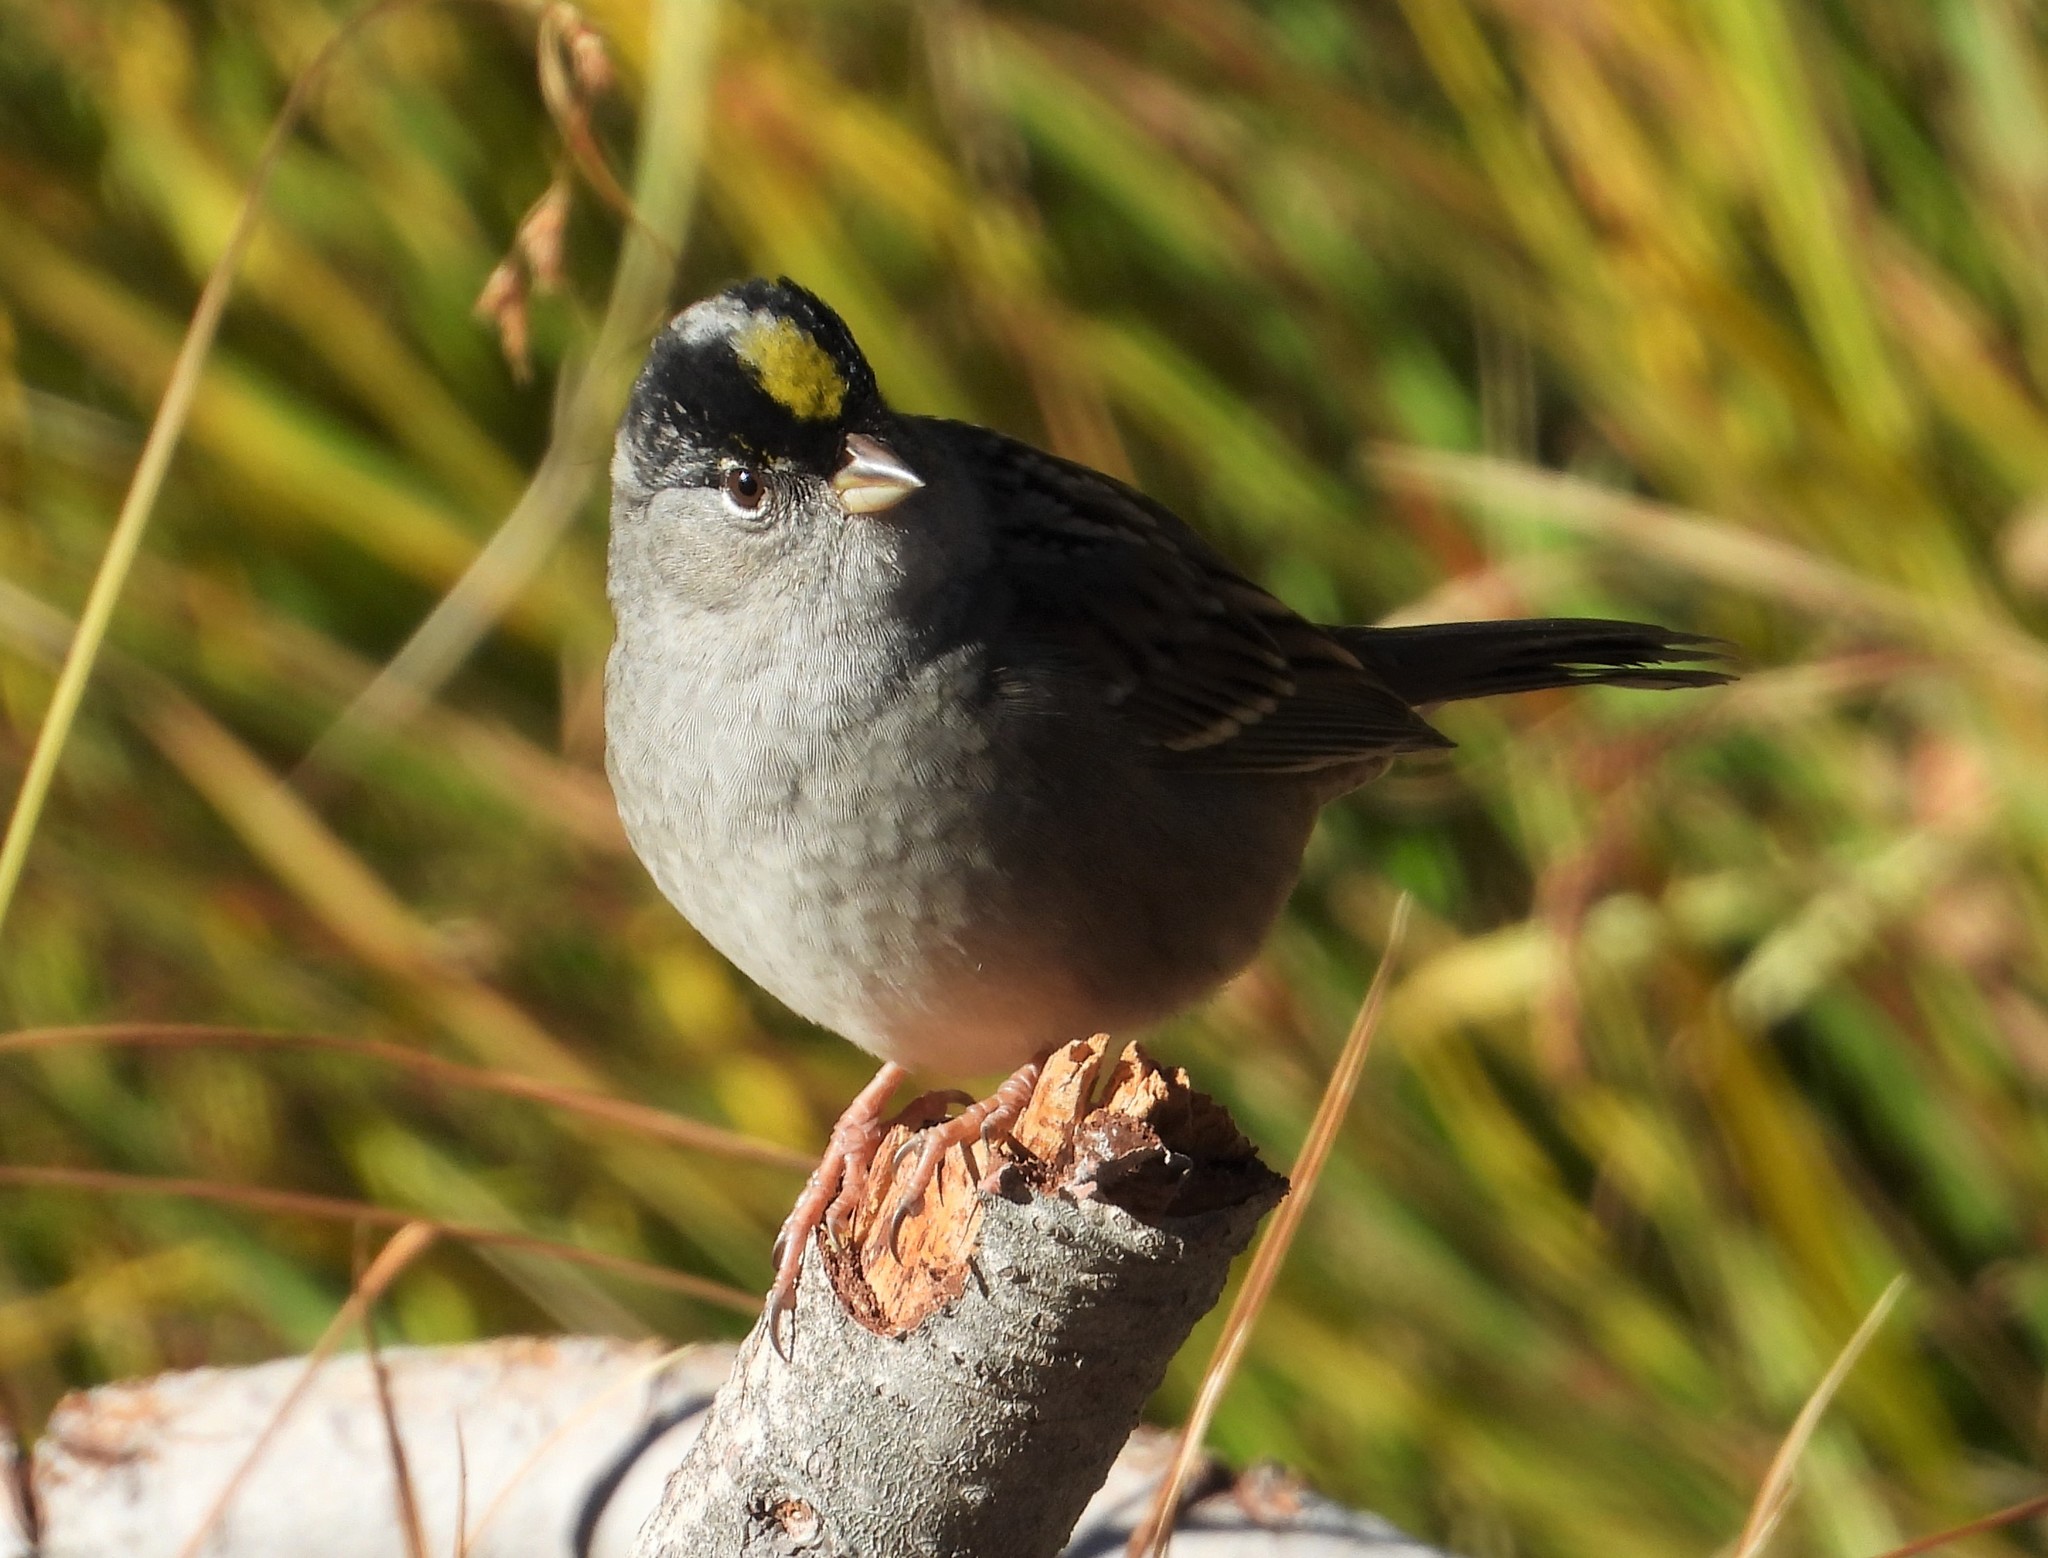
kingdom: Animalia
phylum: Chordata
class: Aves
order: Passeriformes
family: Passerellidae
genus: Zonotrichia
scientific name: Zonotrichia atricapilla
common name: Golden-crowned sparrow
